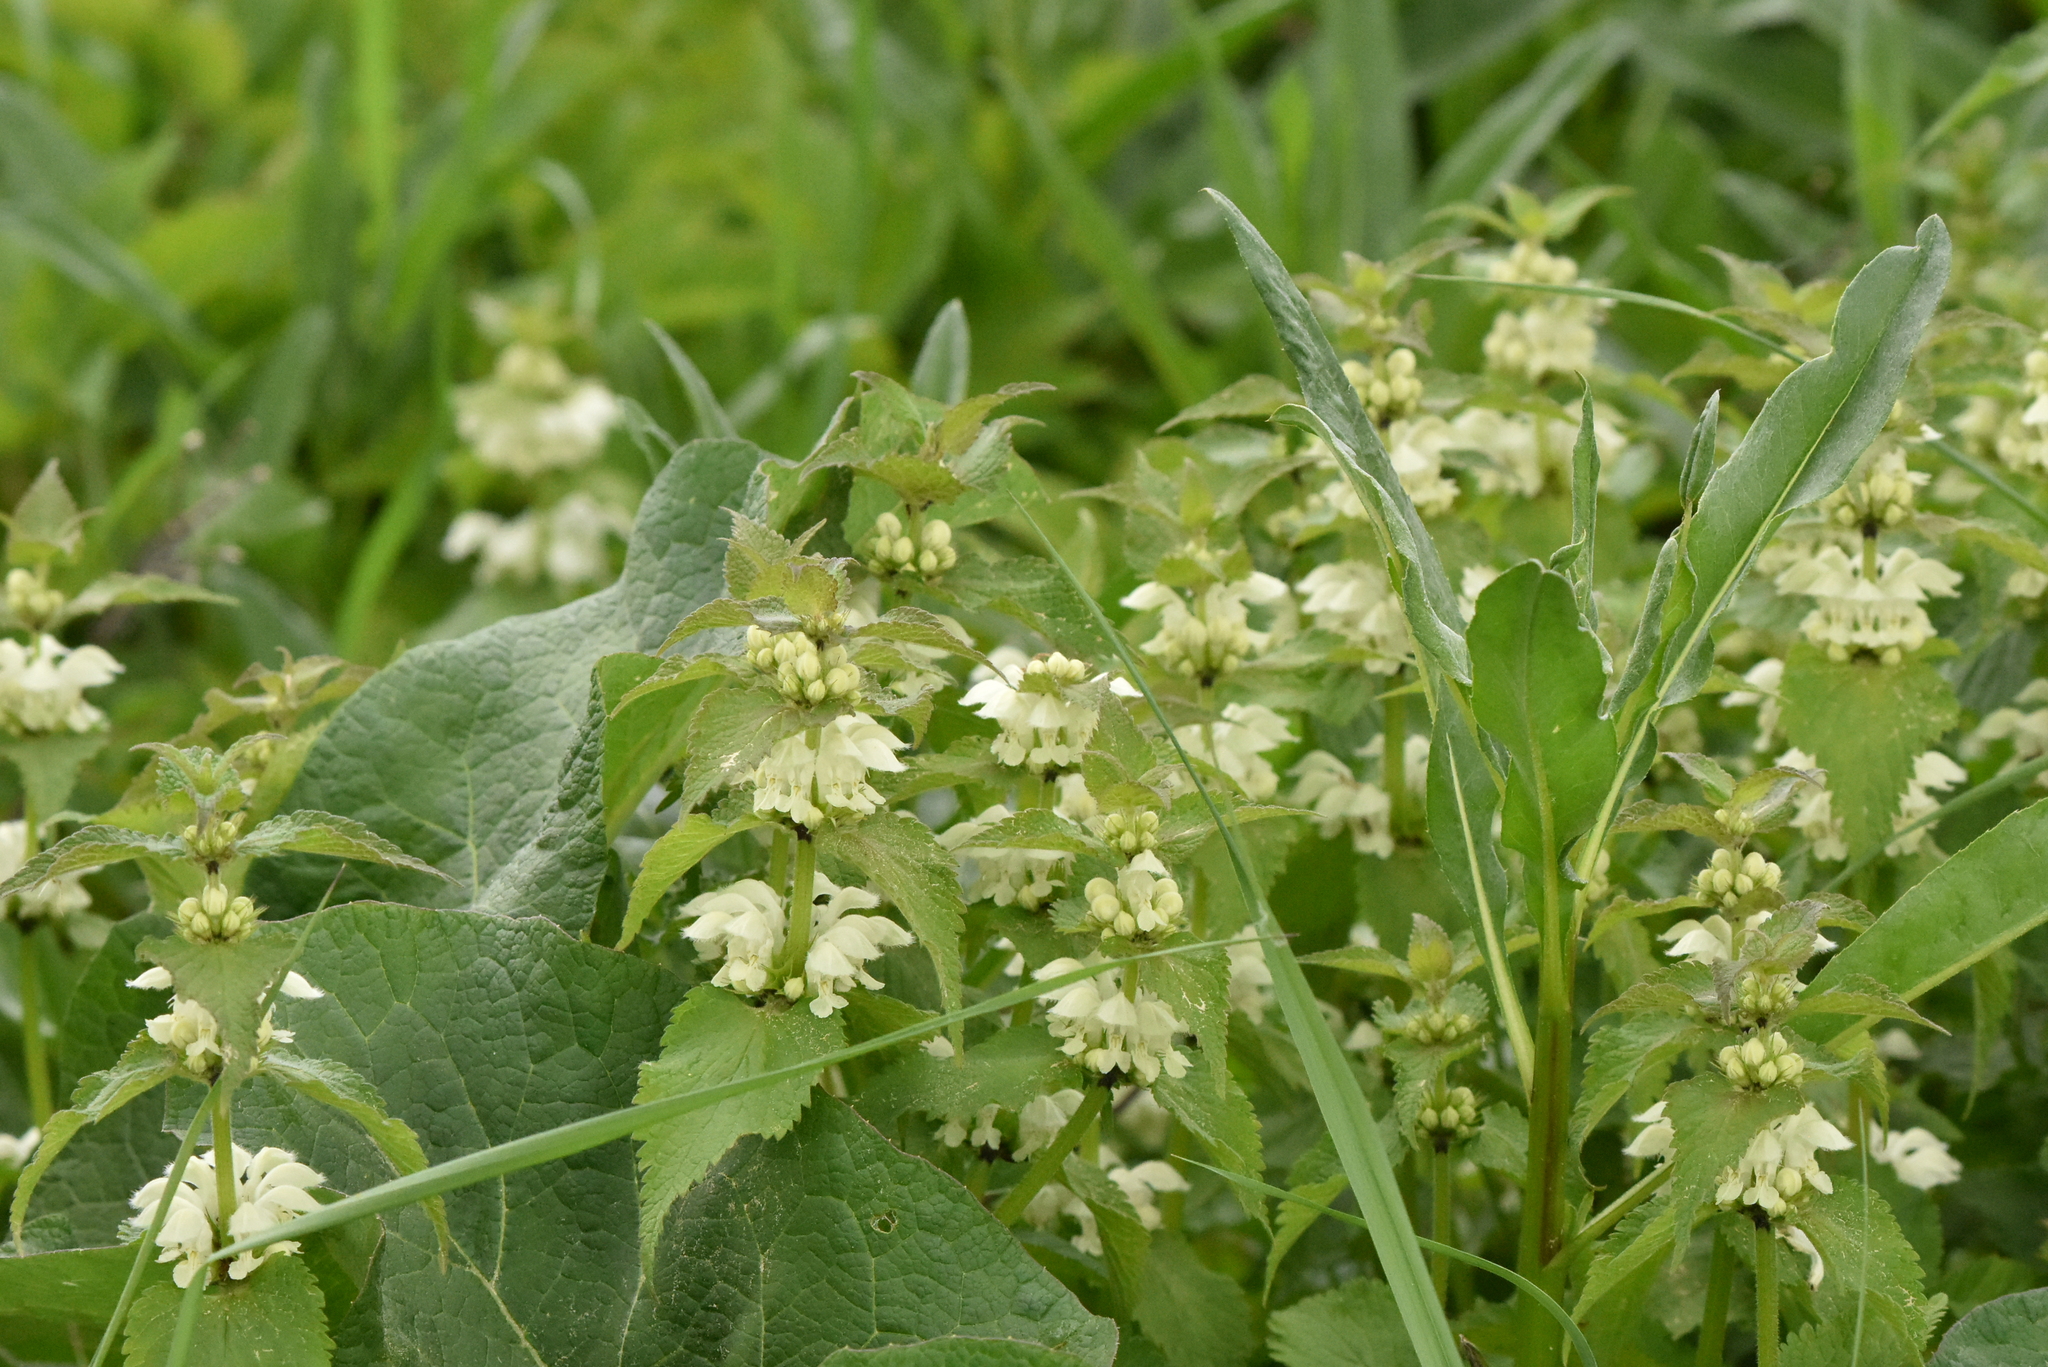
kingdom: Plantae
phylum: Tracheophyta
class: Magnoliopsida
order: Lamiales
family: Lamiaceae
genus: Lamium
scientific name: Lamium album
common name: White dead-nettle
